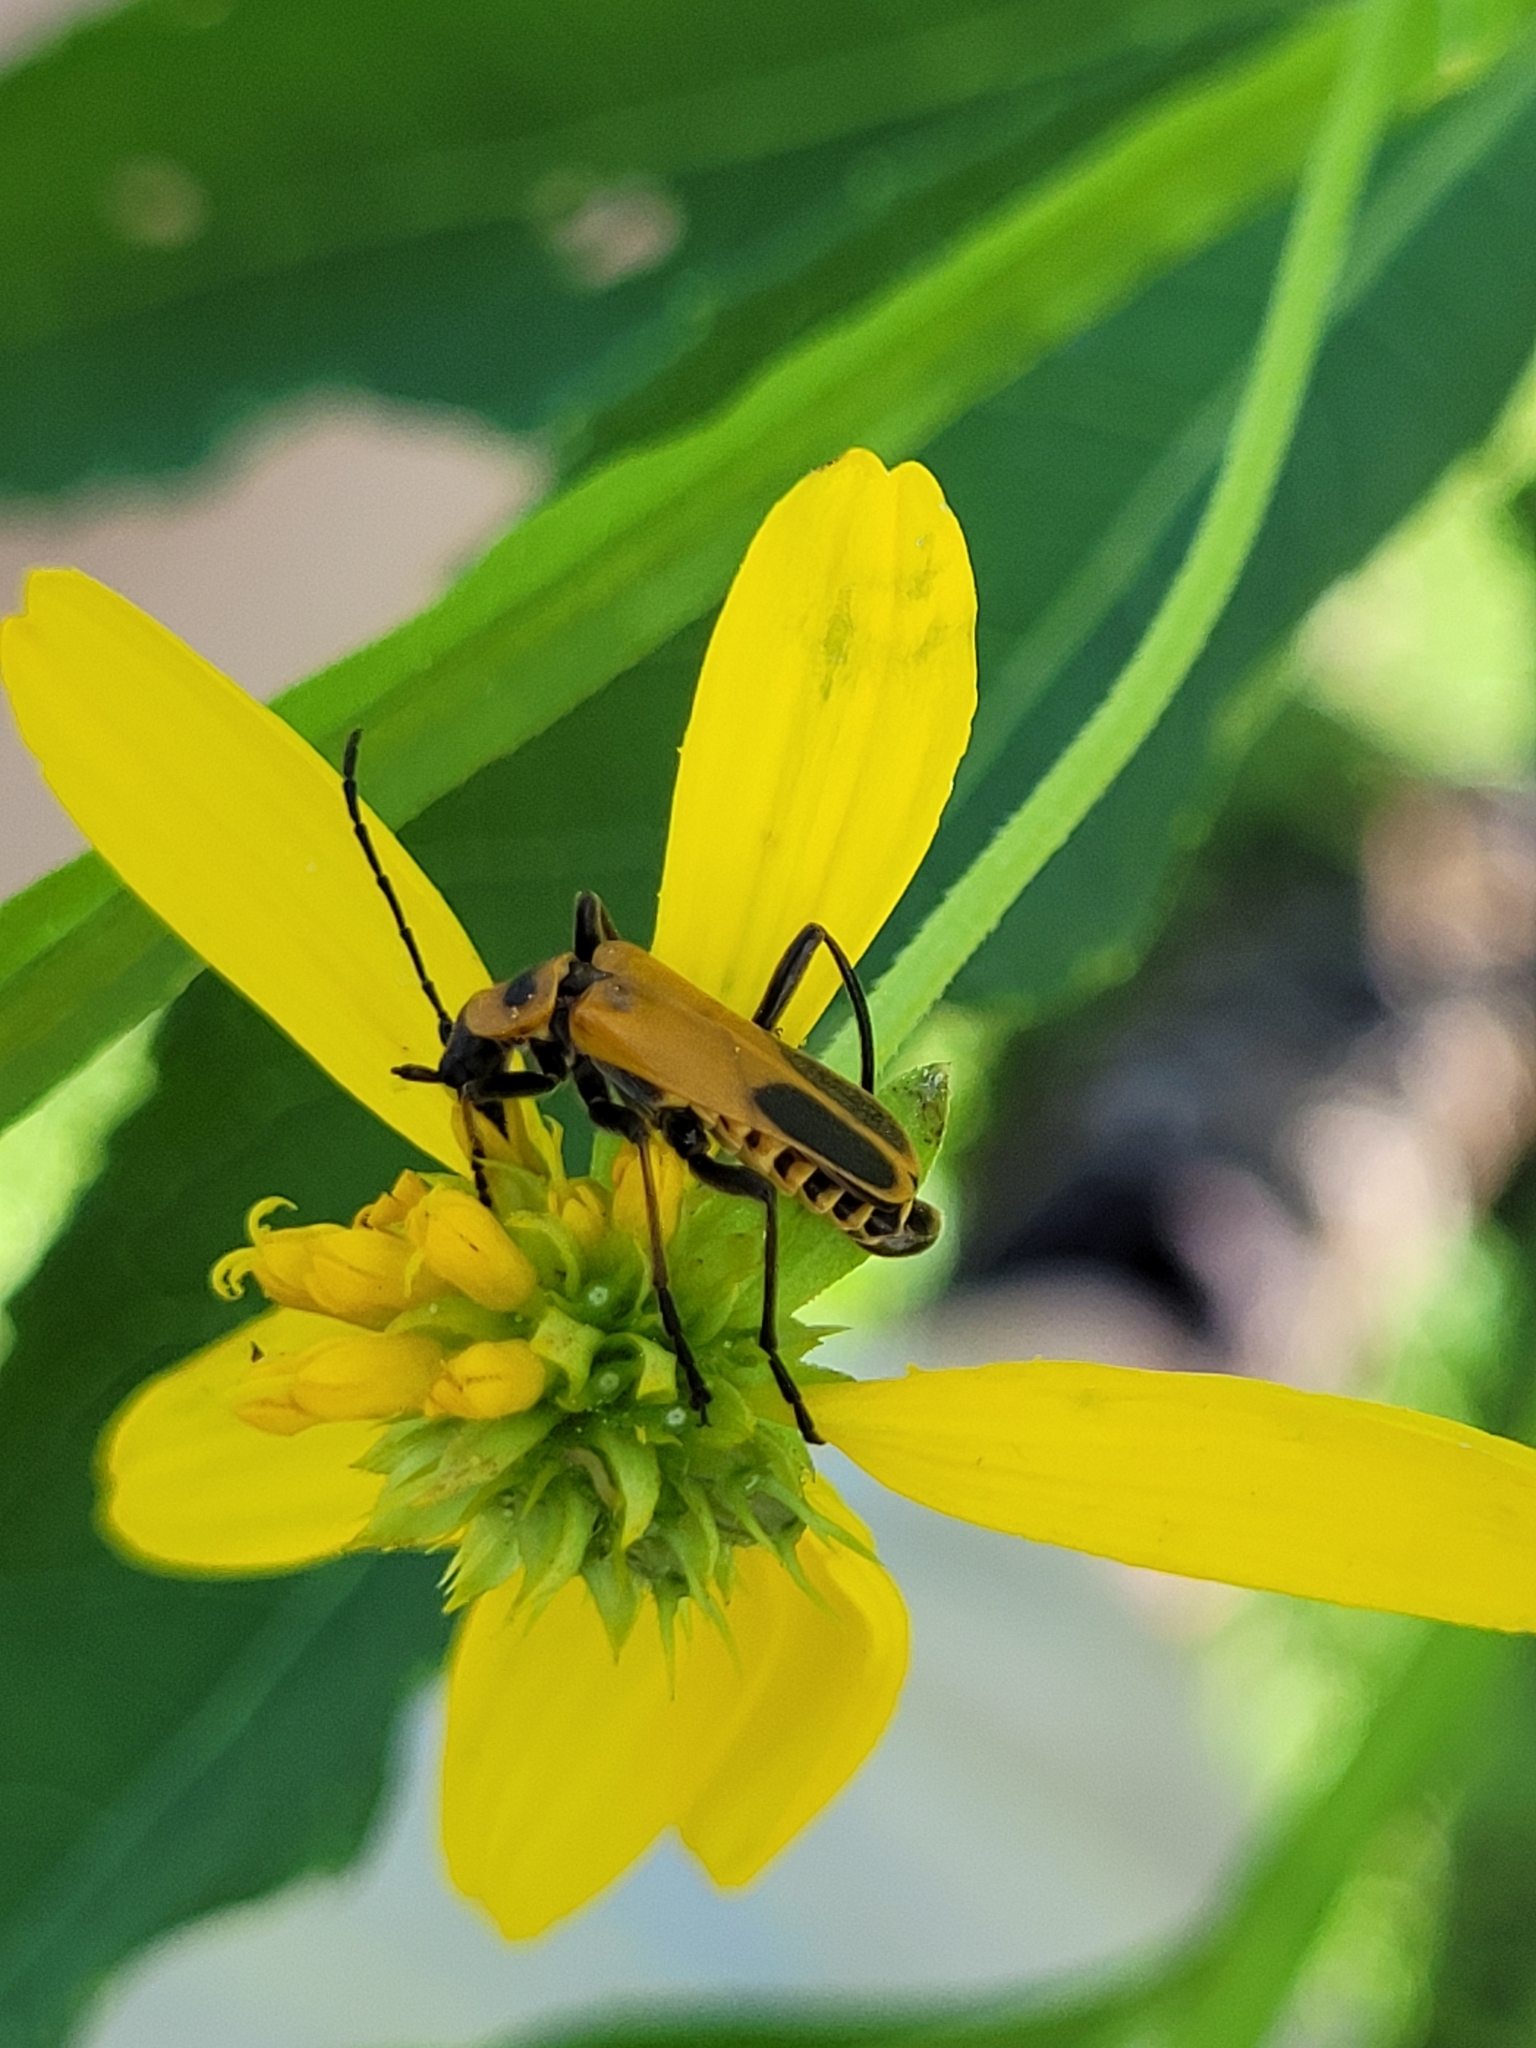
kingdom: Animalia
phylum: Arthropoda
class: Insecta
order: Coleoptera
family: Cantharidae
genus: Chauliognathus
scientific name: Chauliognathus pensylvanicus
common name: Goldenrod soldier beetle
